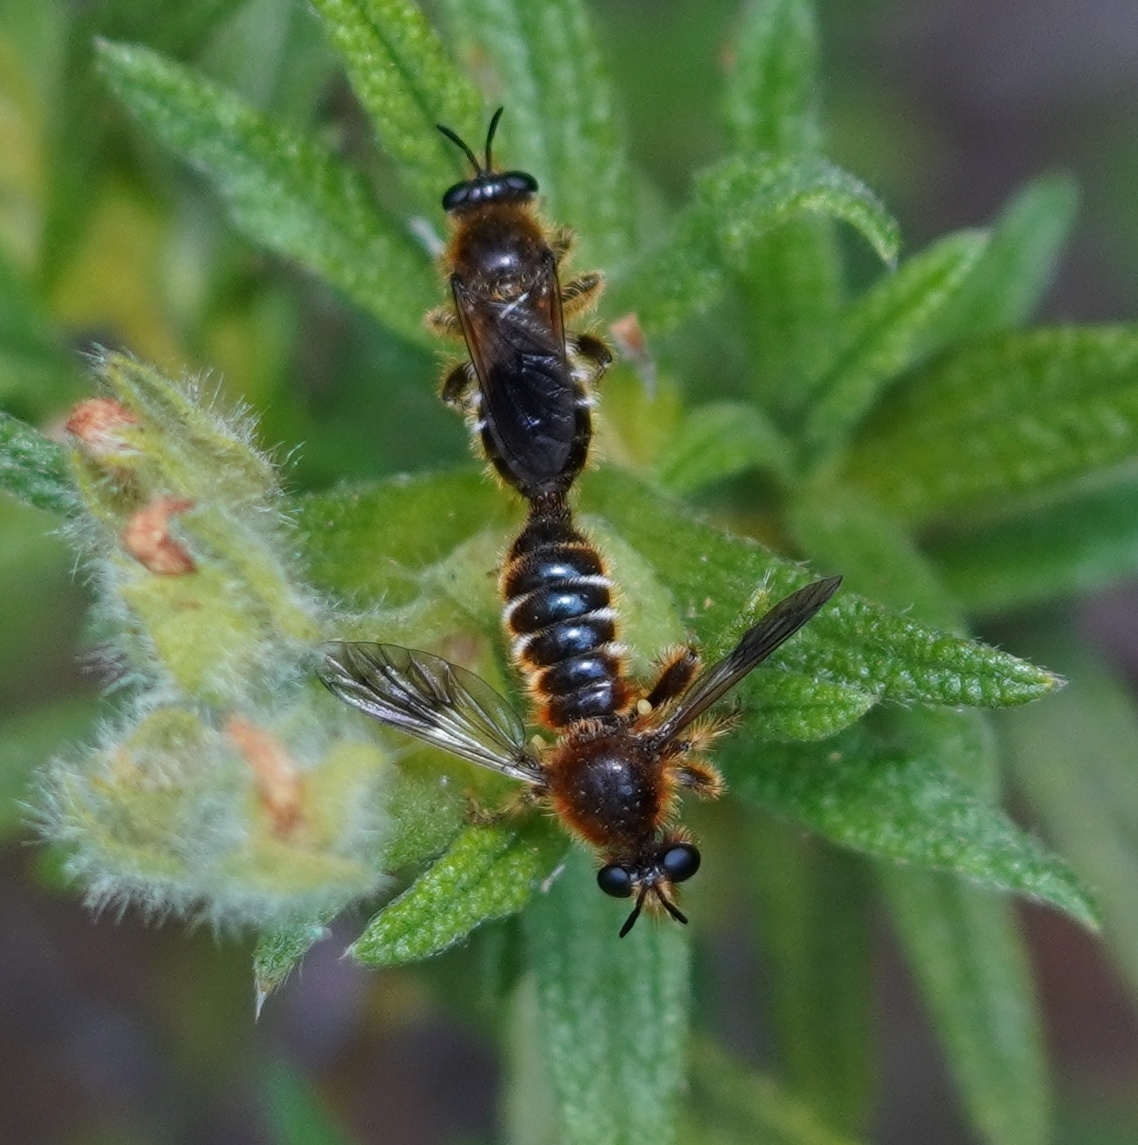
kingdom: Animalia
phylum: Arthropoda
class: Insecta
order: Diptera
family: Asilidae
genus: Lamyra
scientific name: Lamyra fuliginosa
